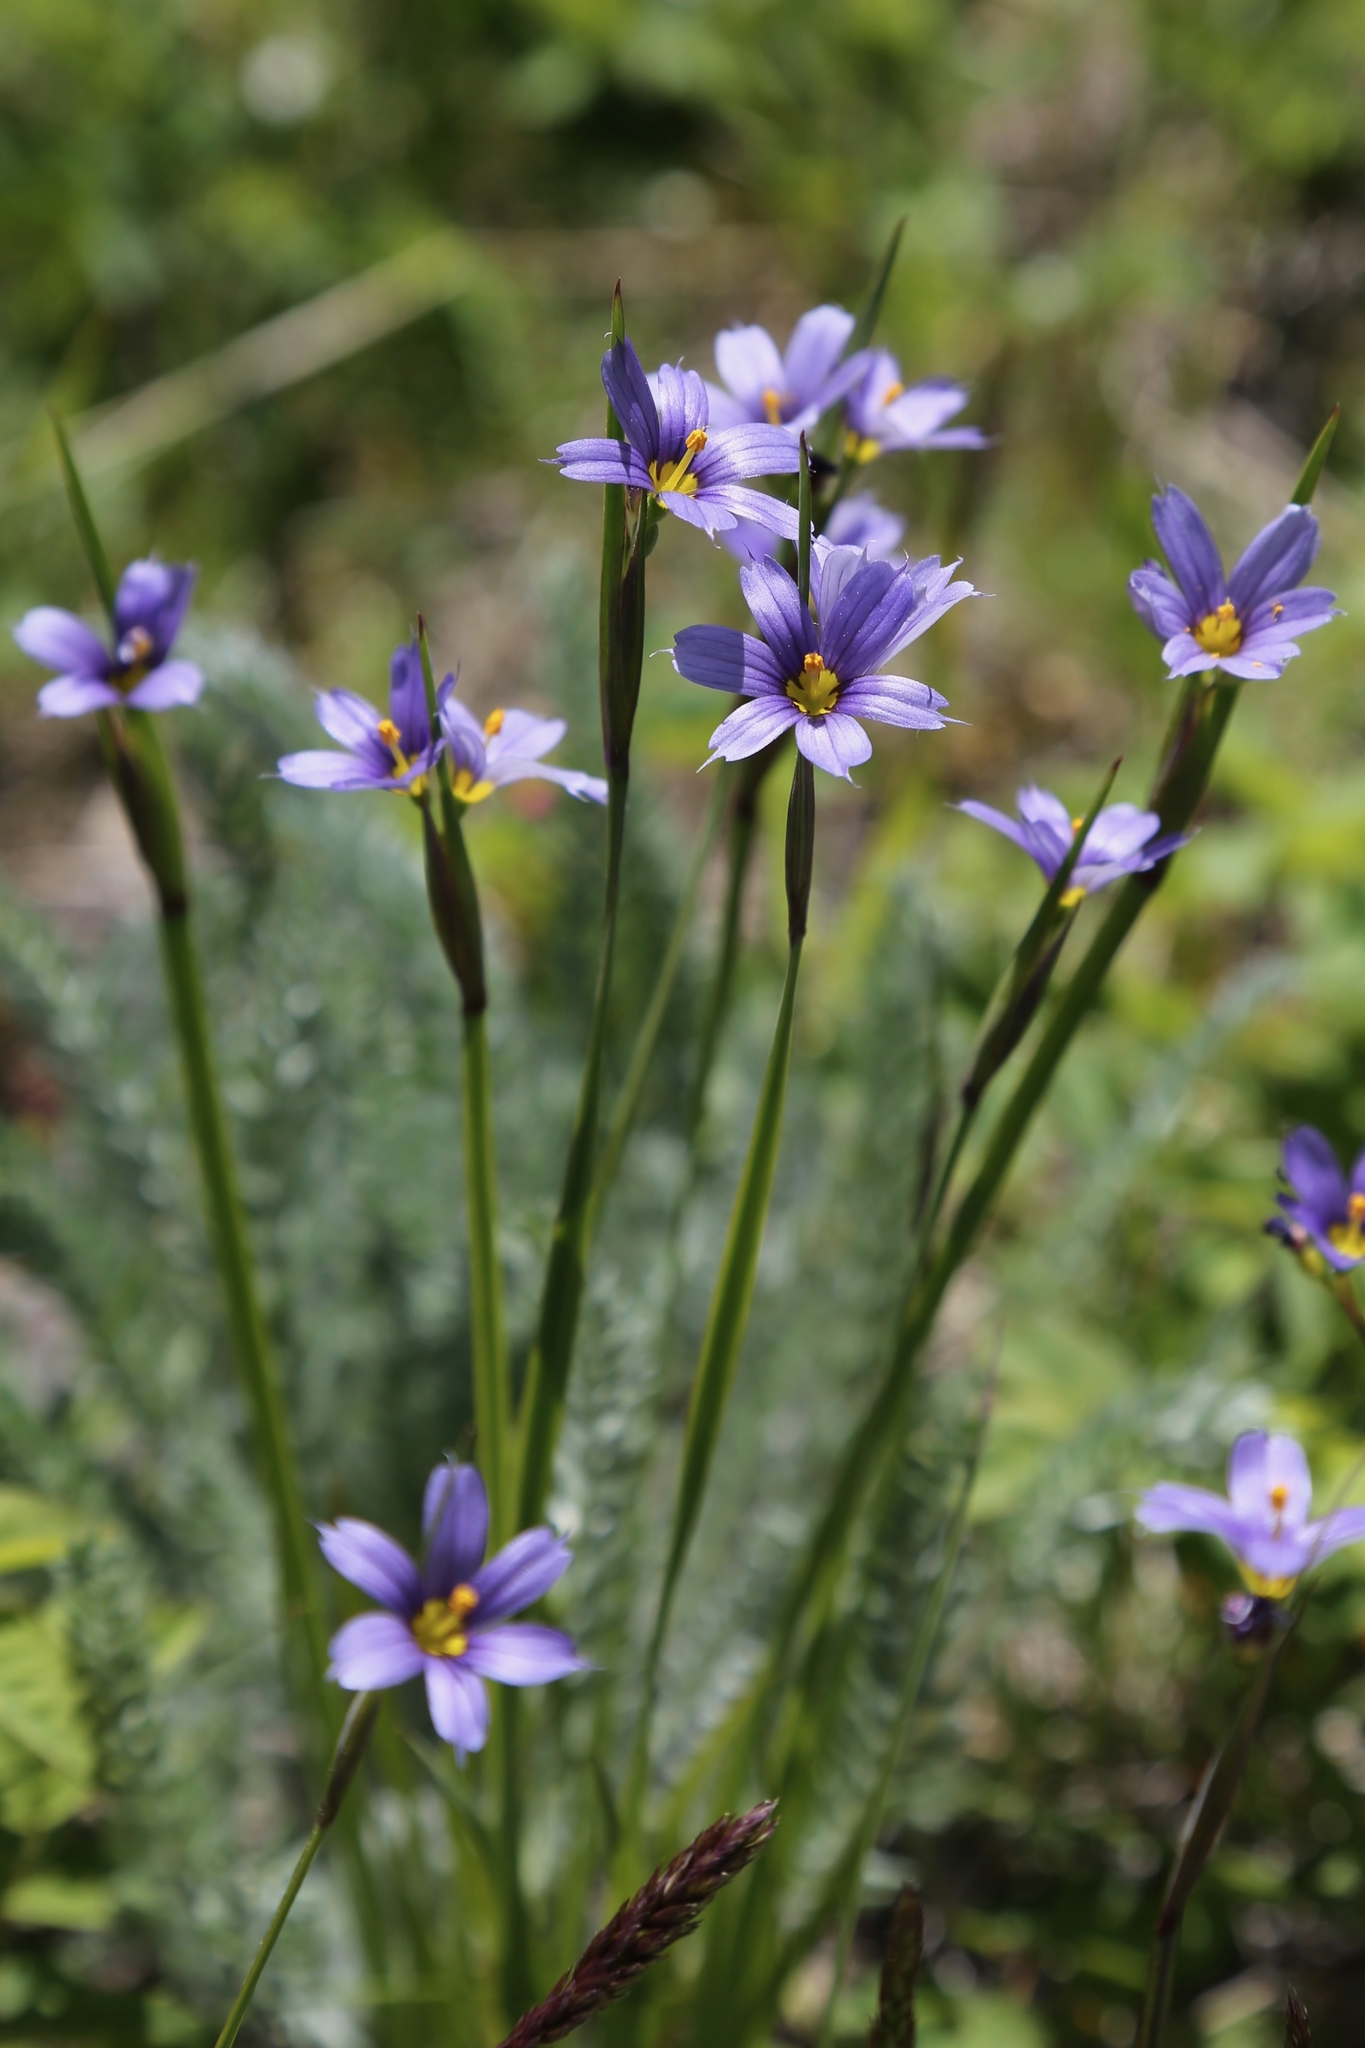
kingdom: Plantae
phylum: Tracheophyta
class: Liliopsida
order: Asparagales
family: Iridaceae
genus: Sisyrinchium
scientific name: Sisyrinchium montanum
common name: American blue-eyed-grass
